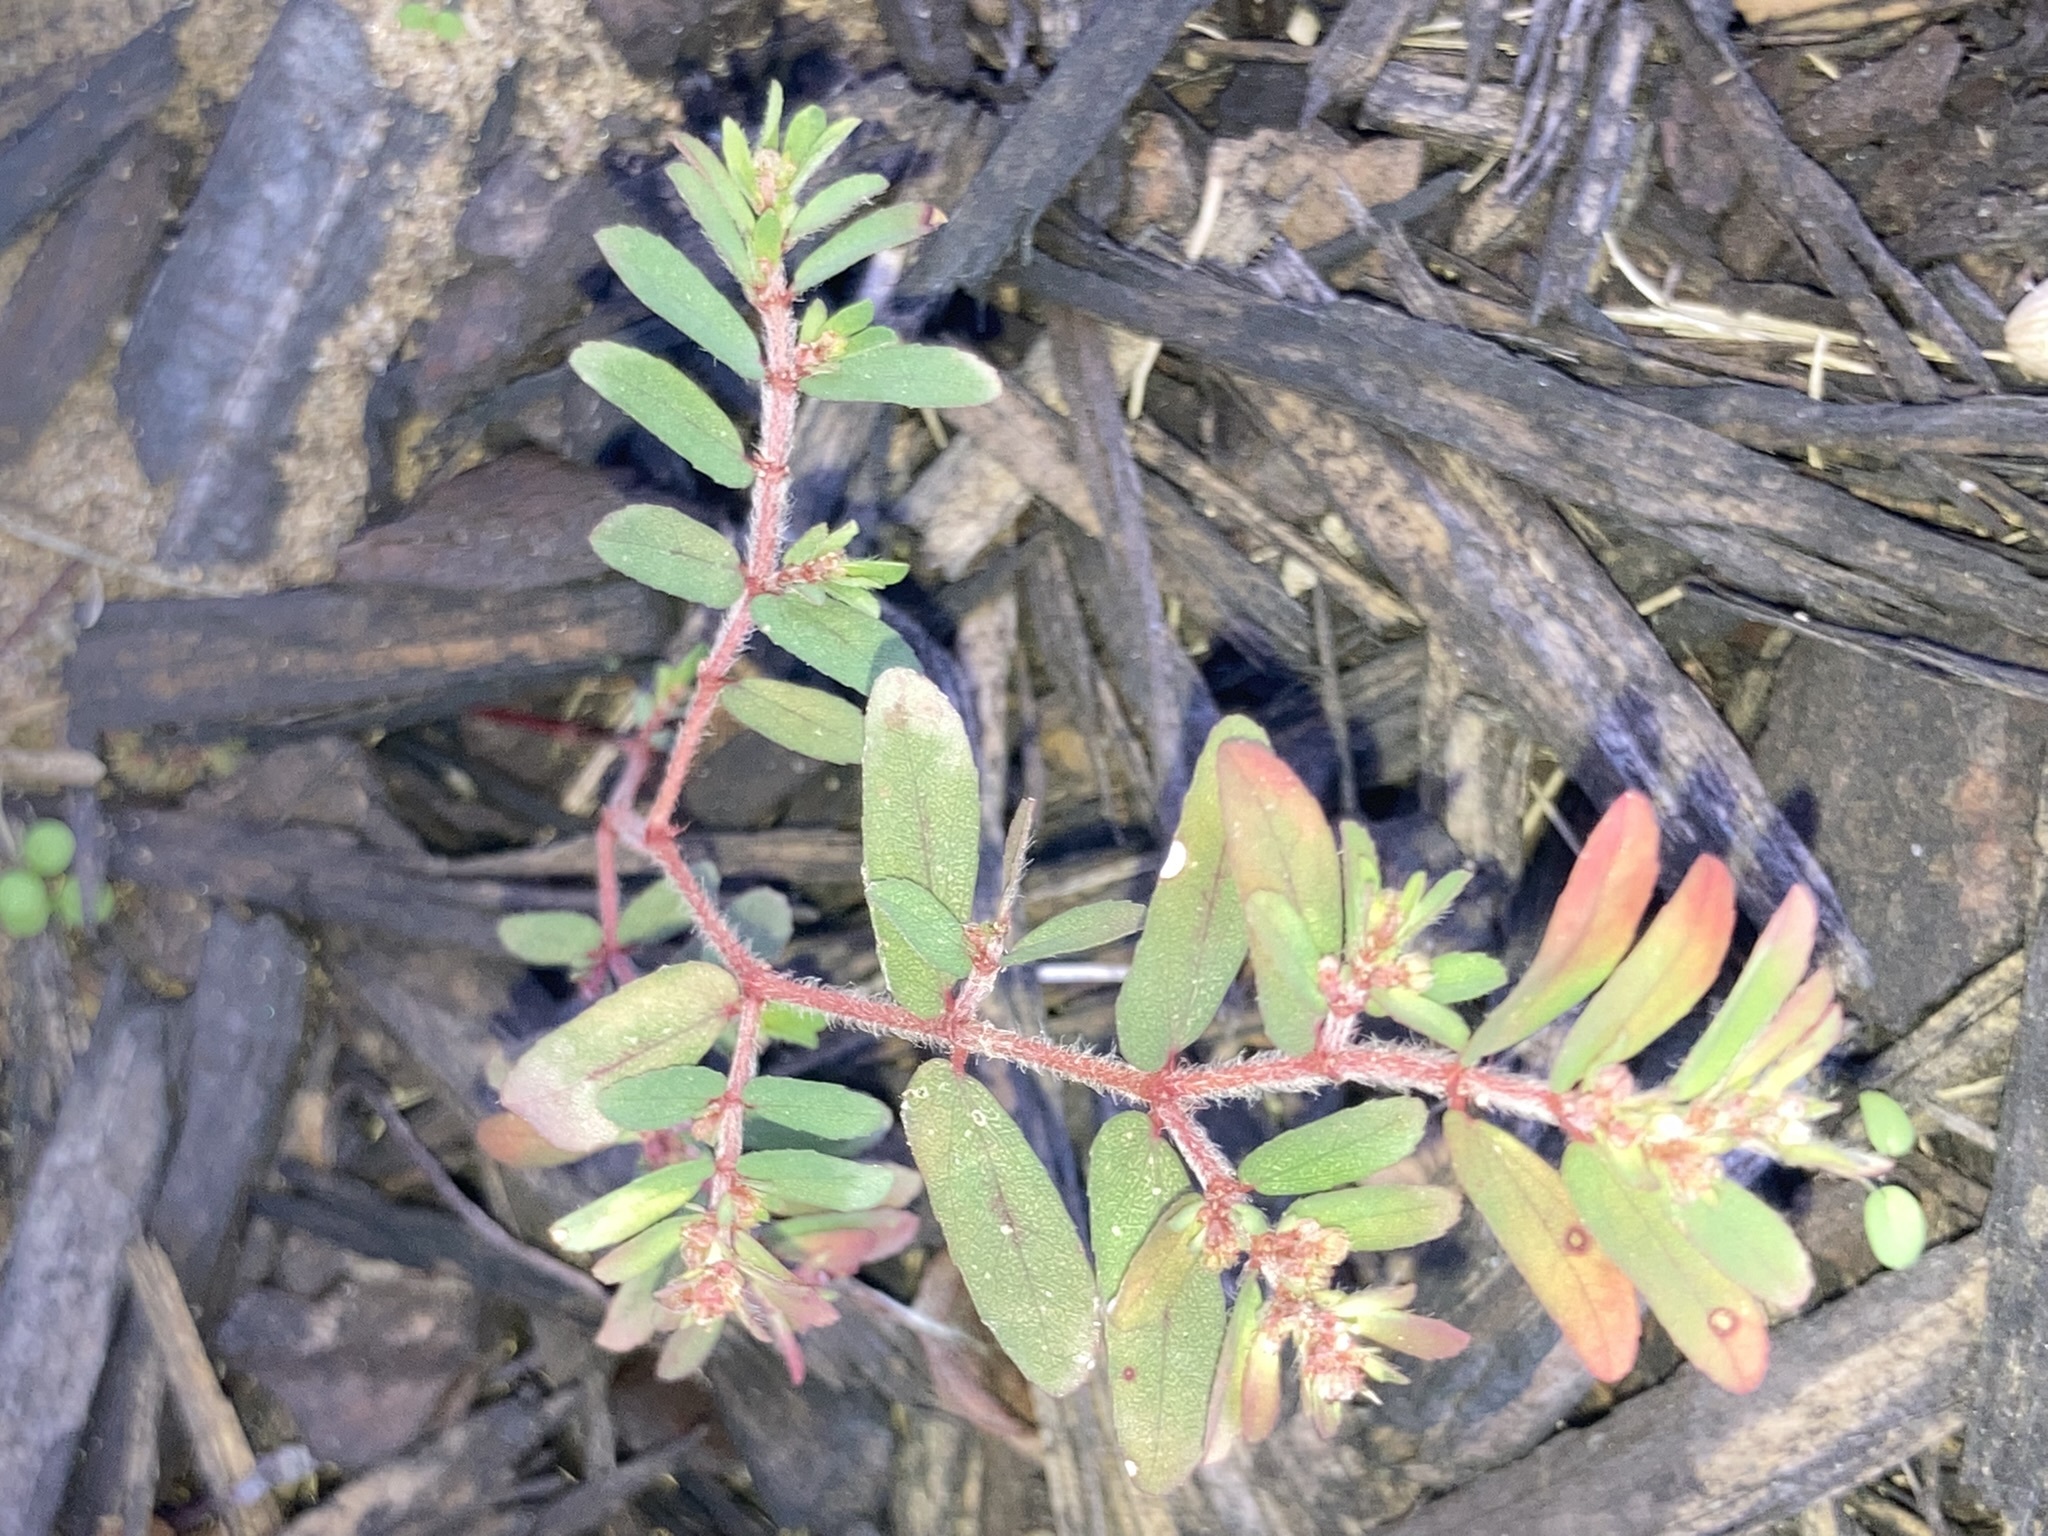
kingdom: Plantae
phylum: Tracheophyta
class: Magnoliopsida
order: Malpighiales
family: Euphorbiaceae
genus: Euphorbia
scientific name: Euphorbia maculata
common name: Spotted spurge
